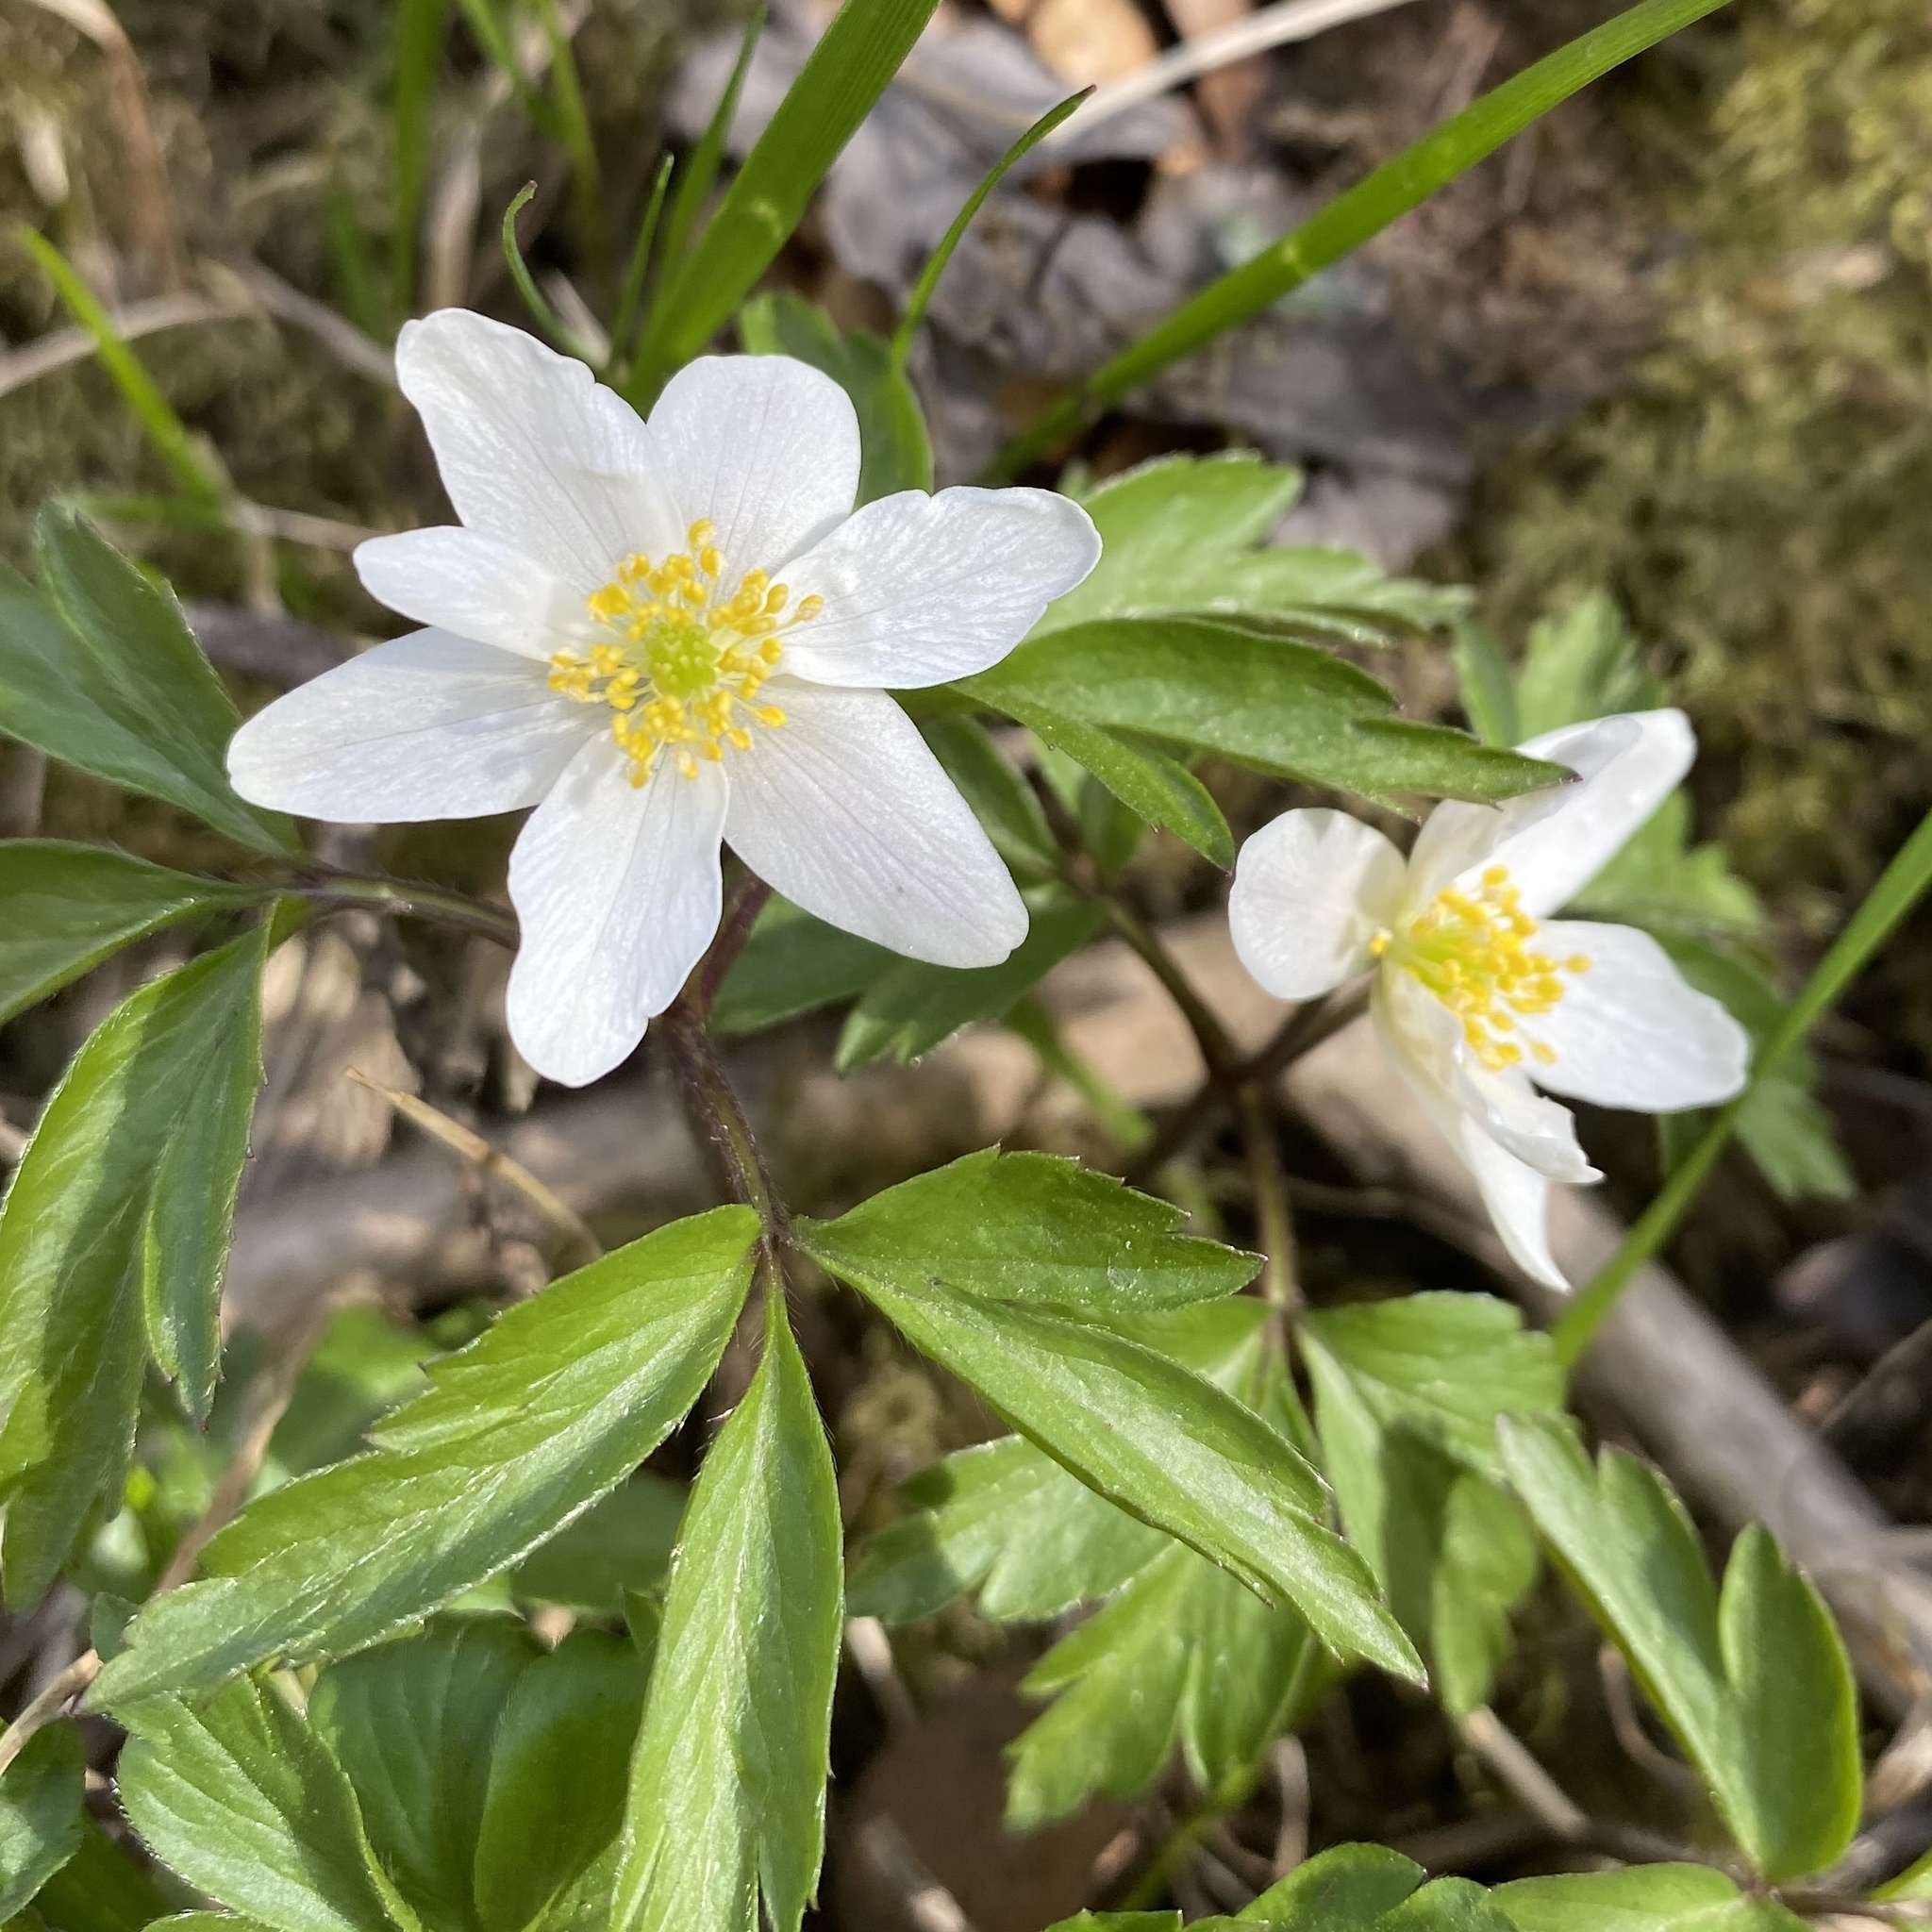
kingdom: Plantae
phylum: Tracheophyta
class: Magnoliopsida
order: Ranunculales
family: Ranunculaceae
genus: Anemone
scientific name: Anemone nemorosa
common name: Wood anemone
